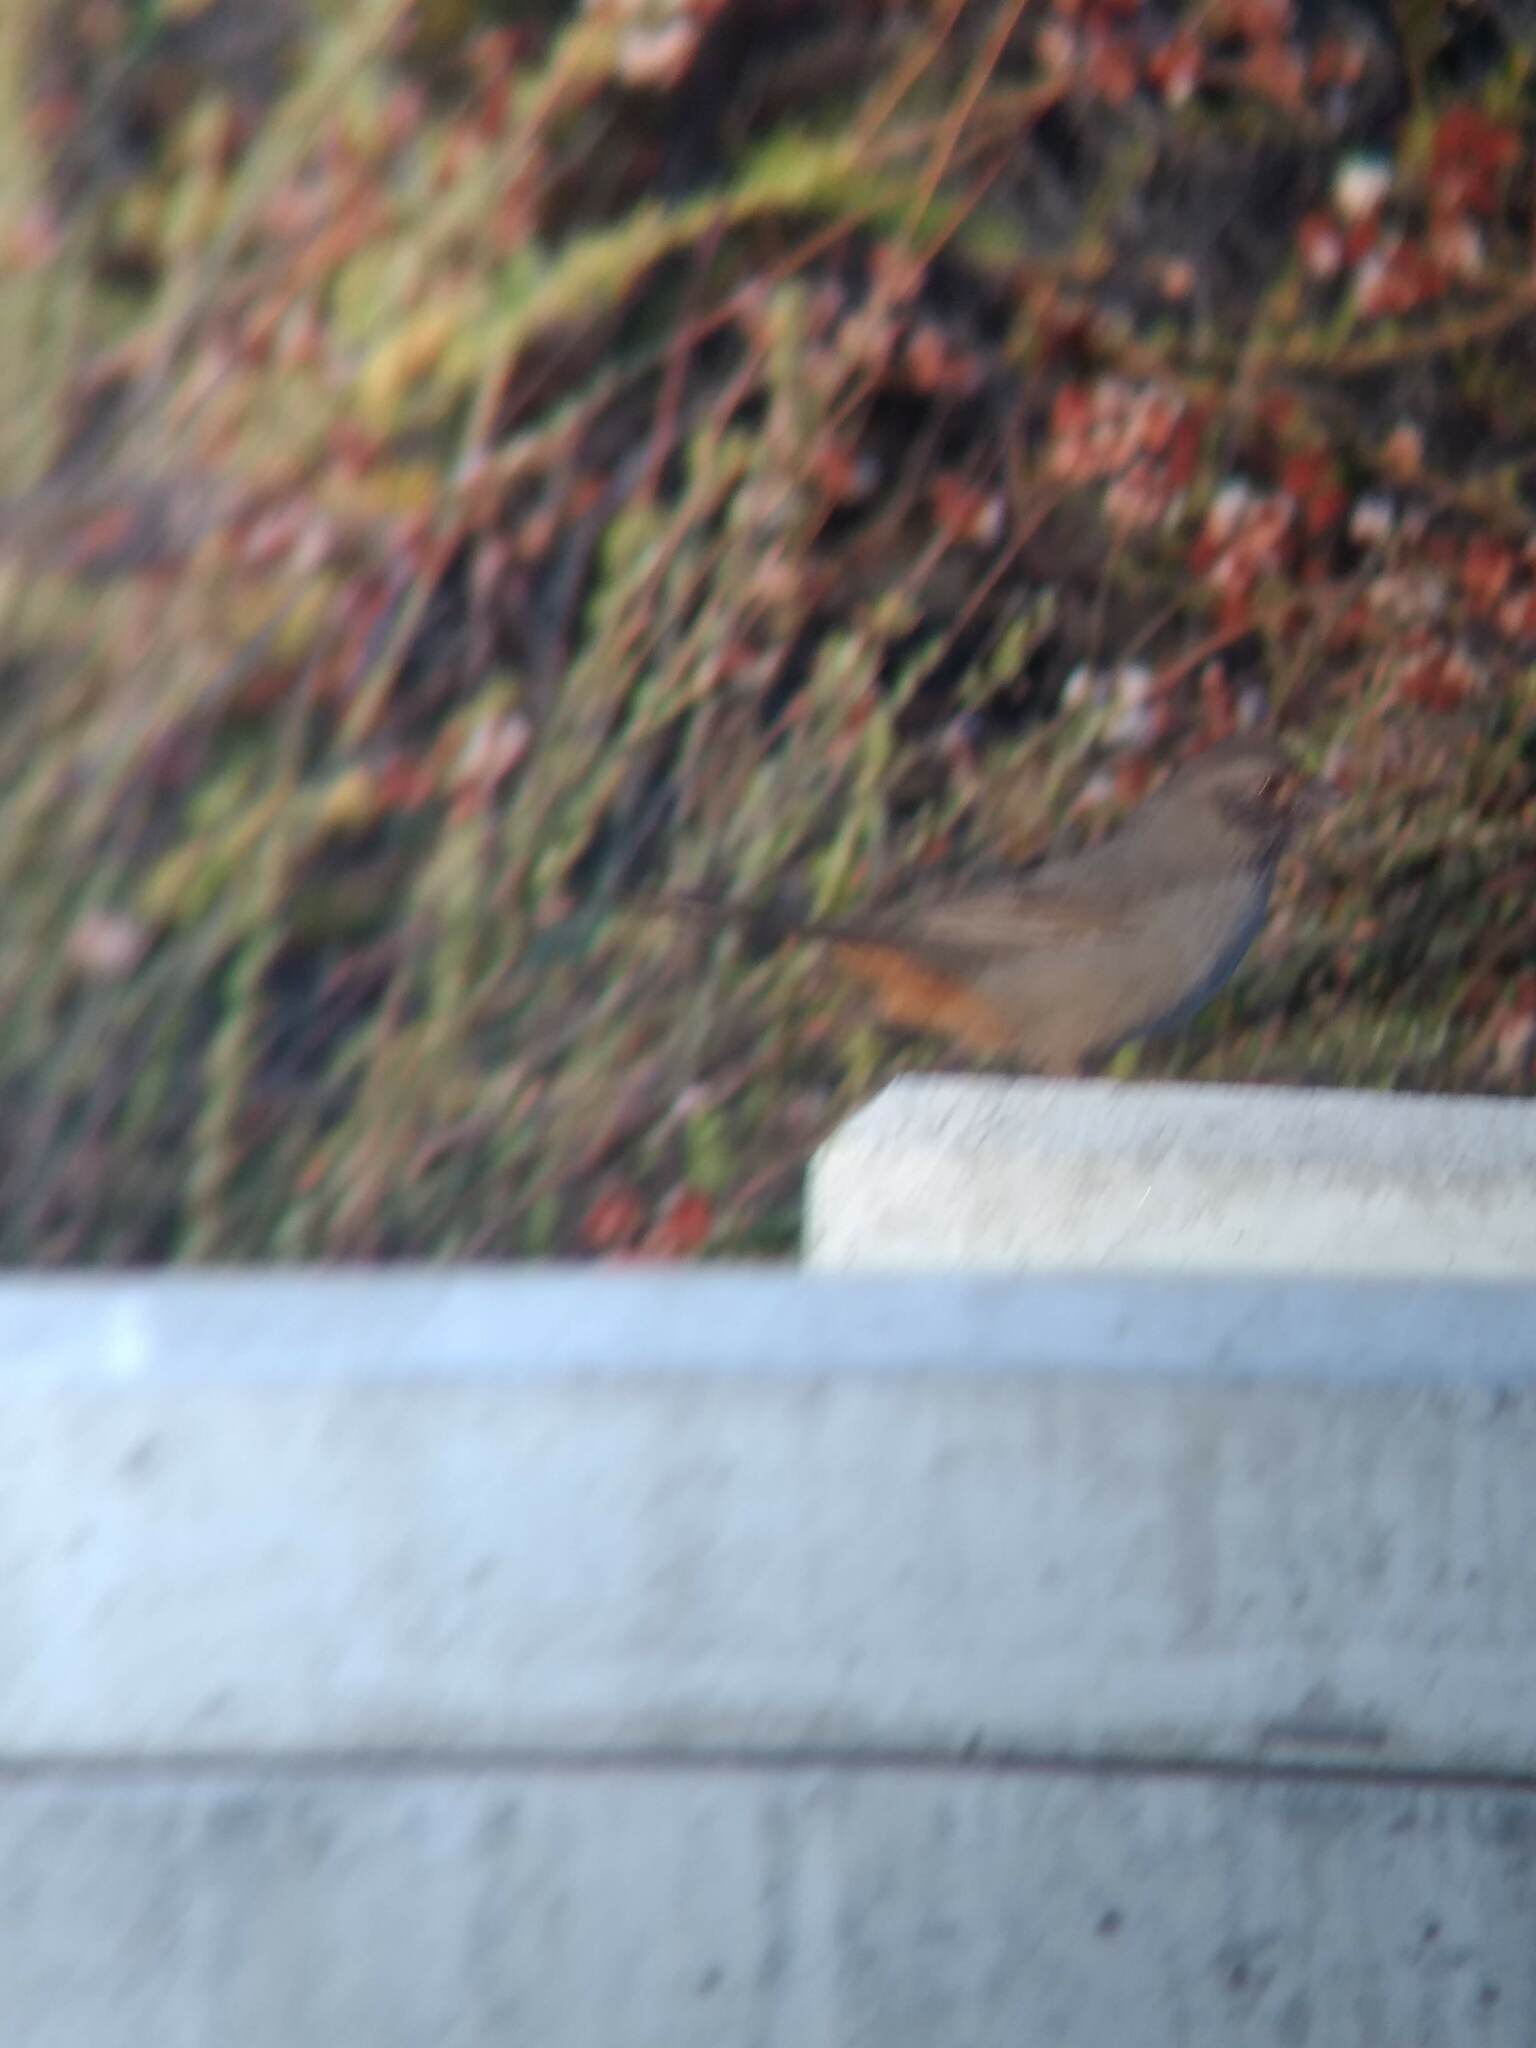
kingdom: Animalia
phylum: Chordata
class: Aves
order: Passeriformes
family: Passerellidae
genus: Melozone
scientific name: Melozone crissalis
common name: California towhee
